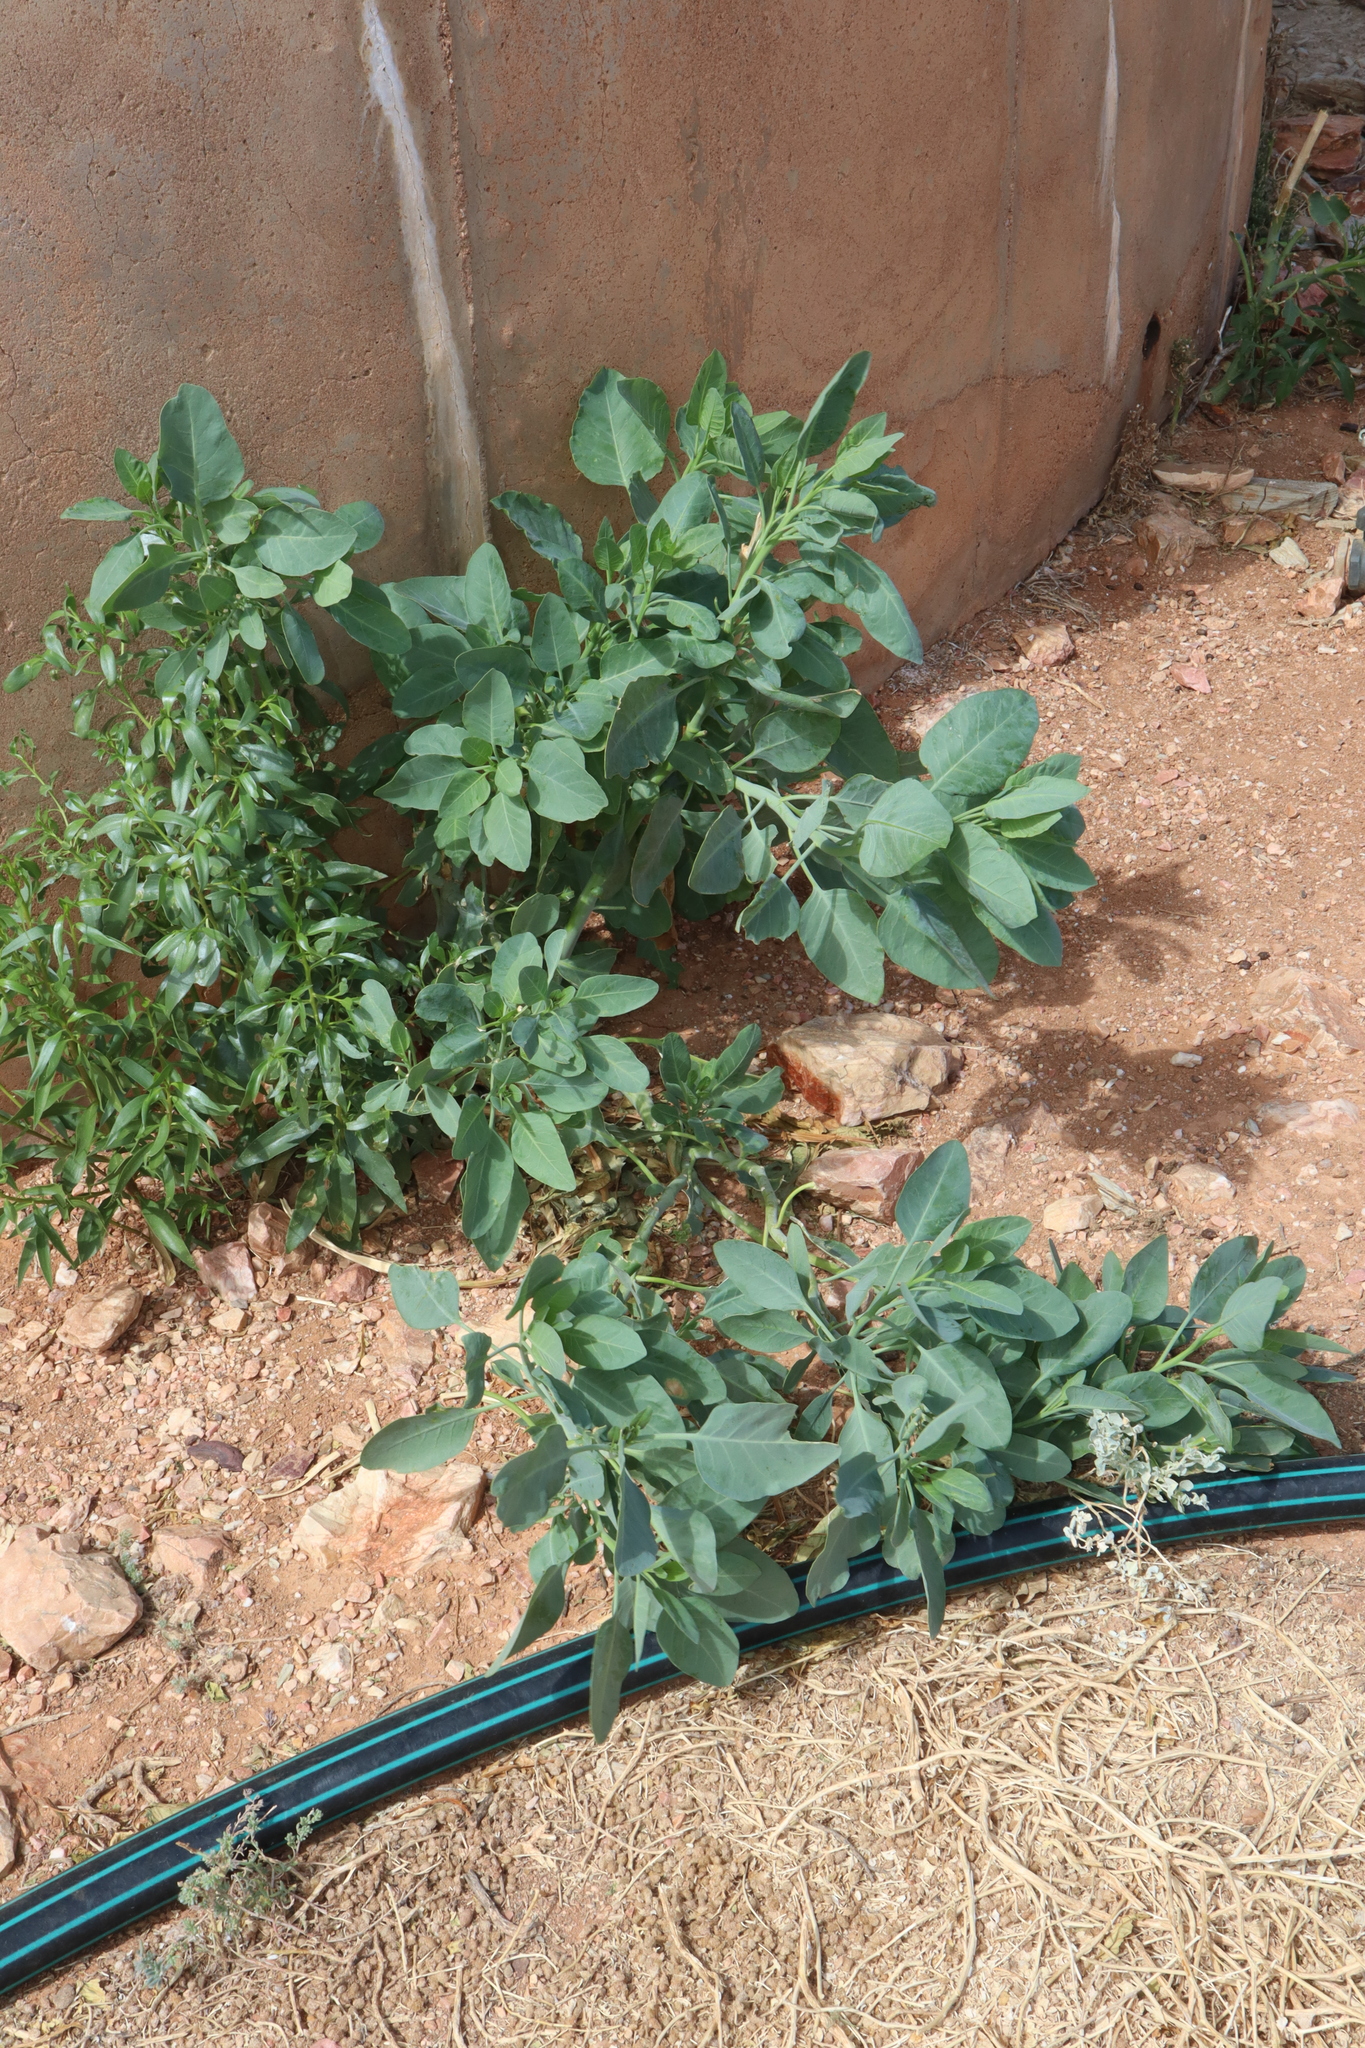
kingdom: Plantae
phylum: Tracheophyta
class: Magnoliopsida
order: Solanales
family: Solanaceae
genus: Nicotiana
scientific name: Nicotiana glauca
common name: Tree tobacco
